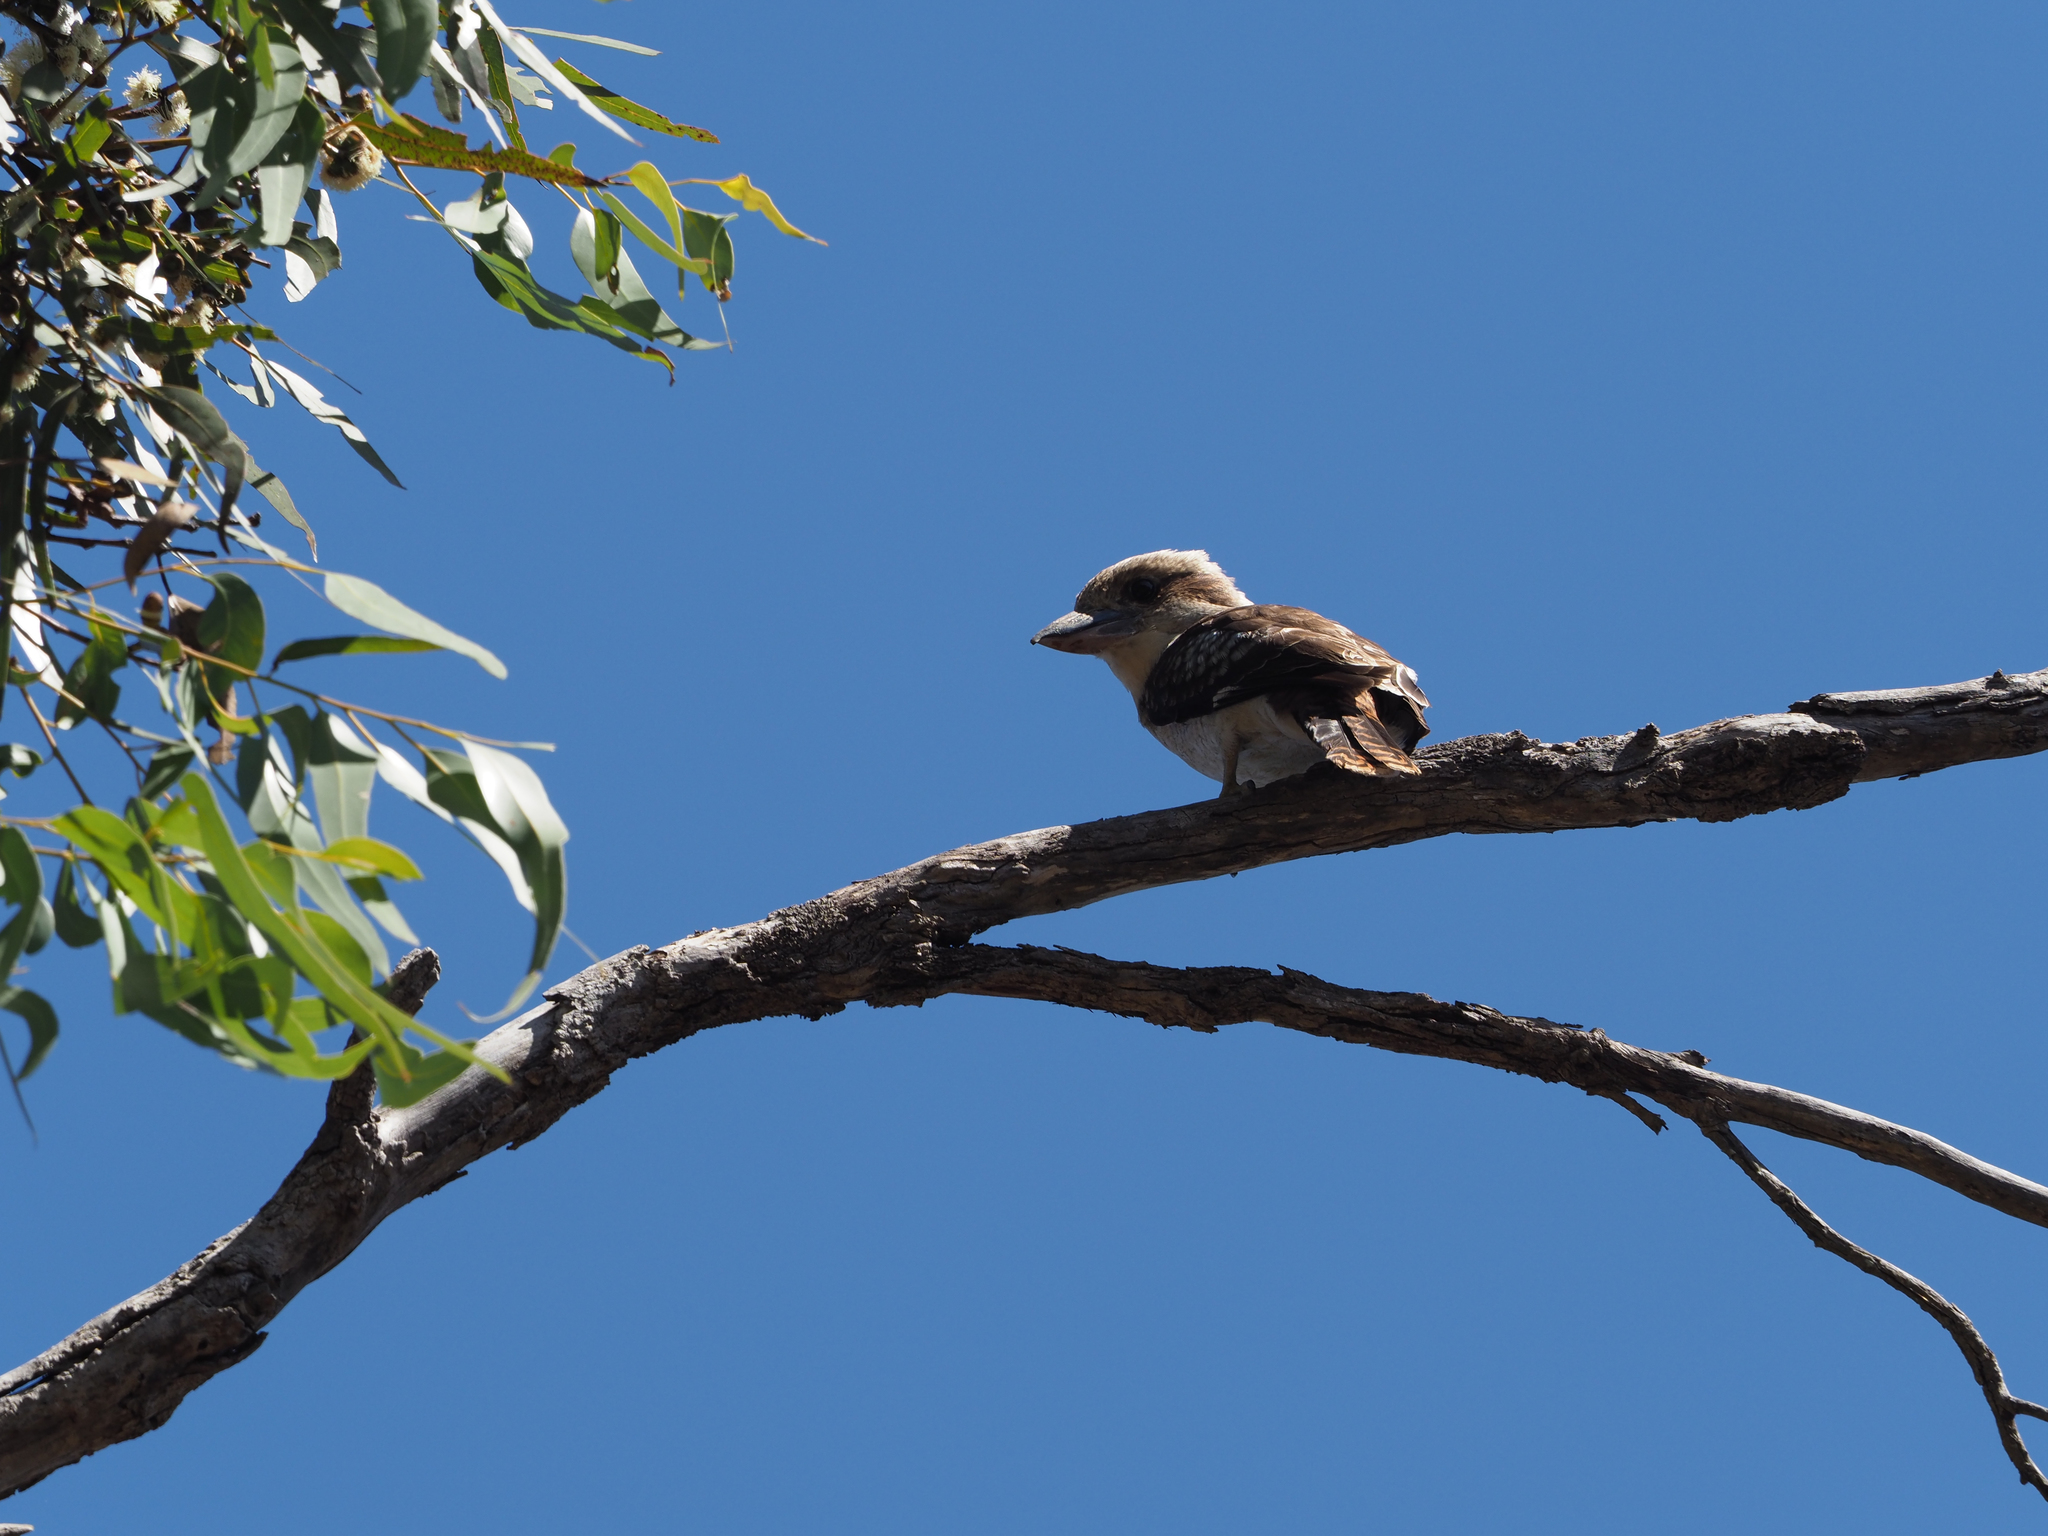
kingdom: Animalia
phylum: Chordata
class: Aves
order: Coraciiformes
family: Alcedinidae
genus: Dacelo
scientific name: Dacelo novaeguineae
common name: Laughing kookaburra
